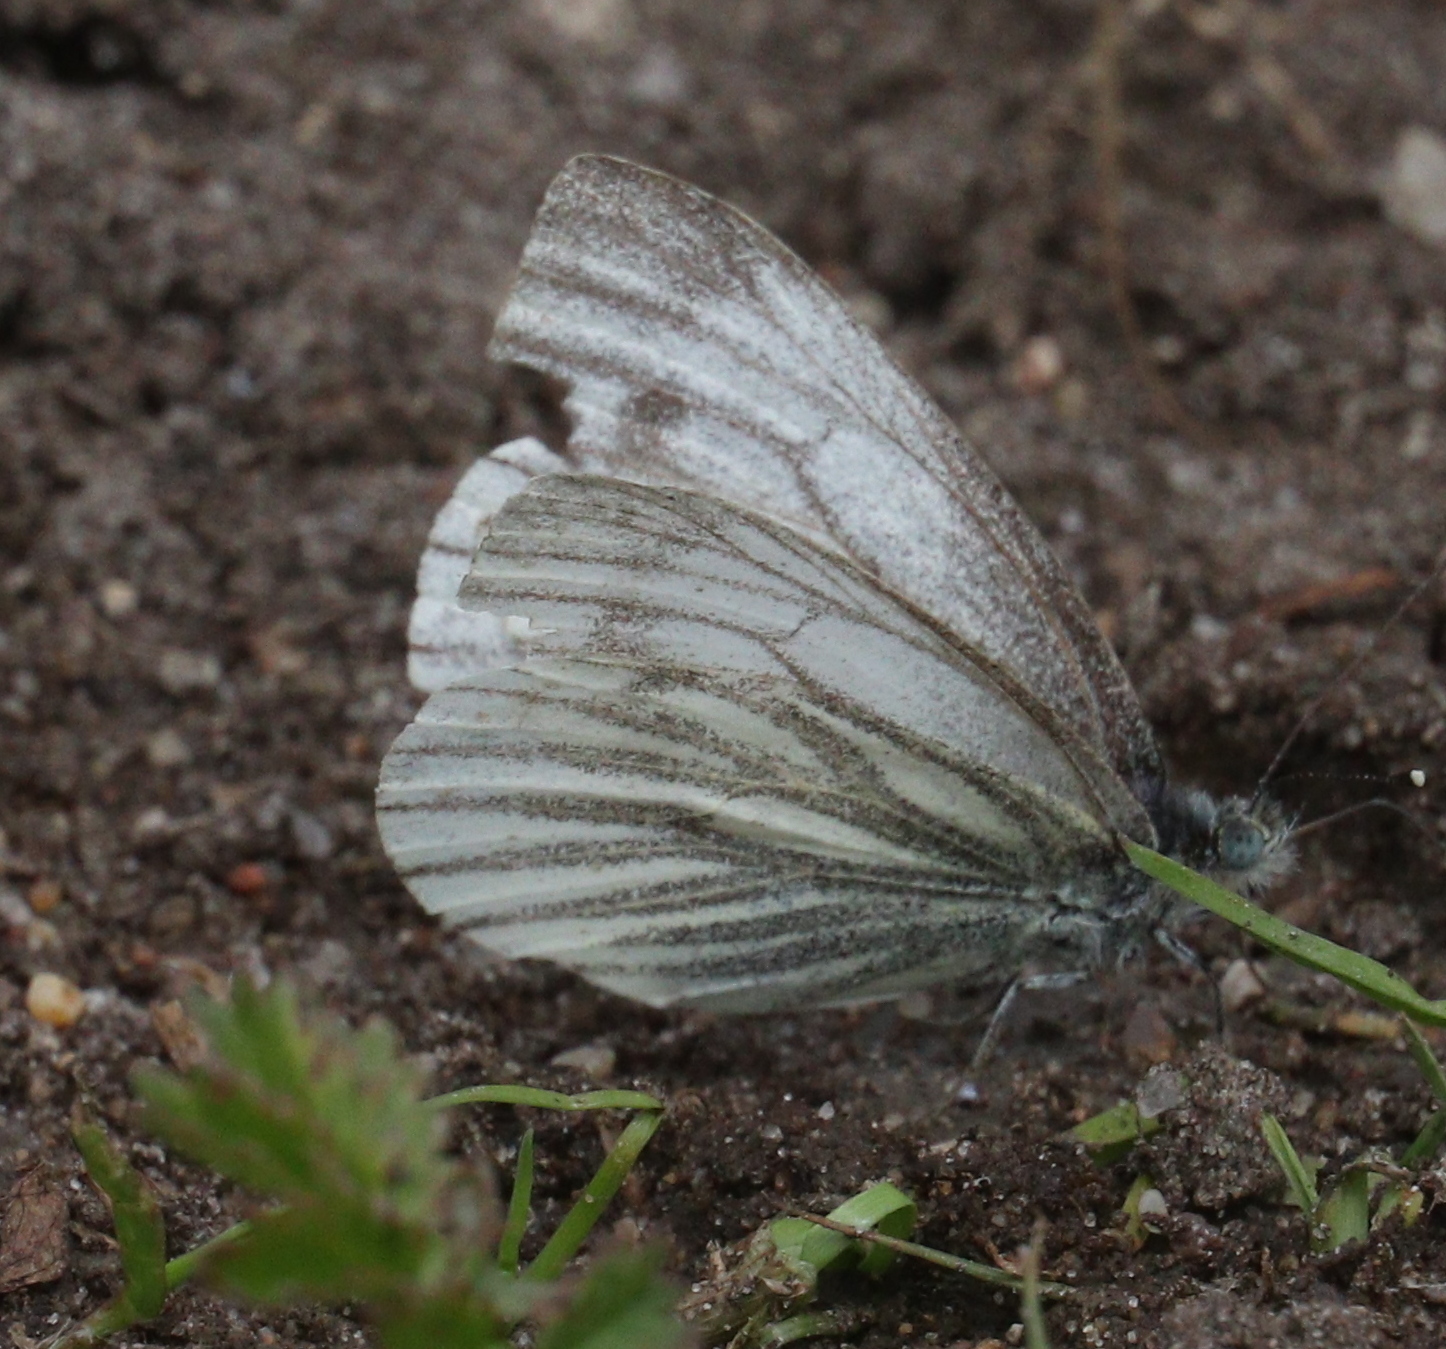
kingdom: Animalia
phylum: Arthropoda
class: Insecta
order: Lepidoptera
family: Pieridae
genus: Pieris
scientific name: Pieris napi
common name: Green-veined white
